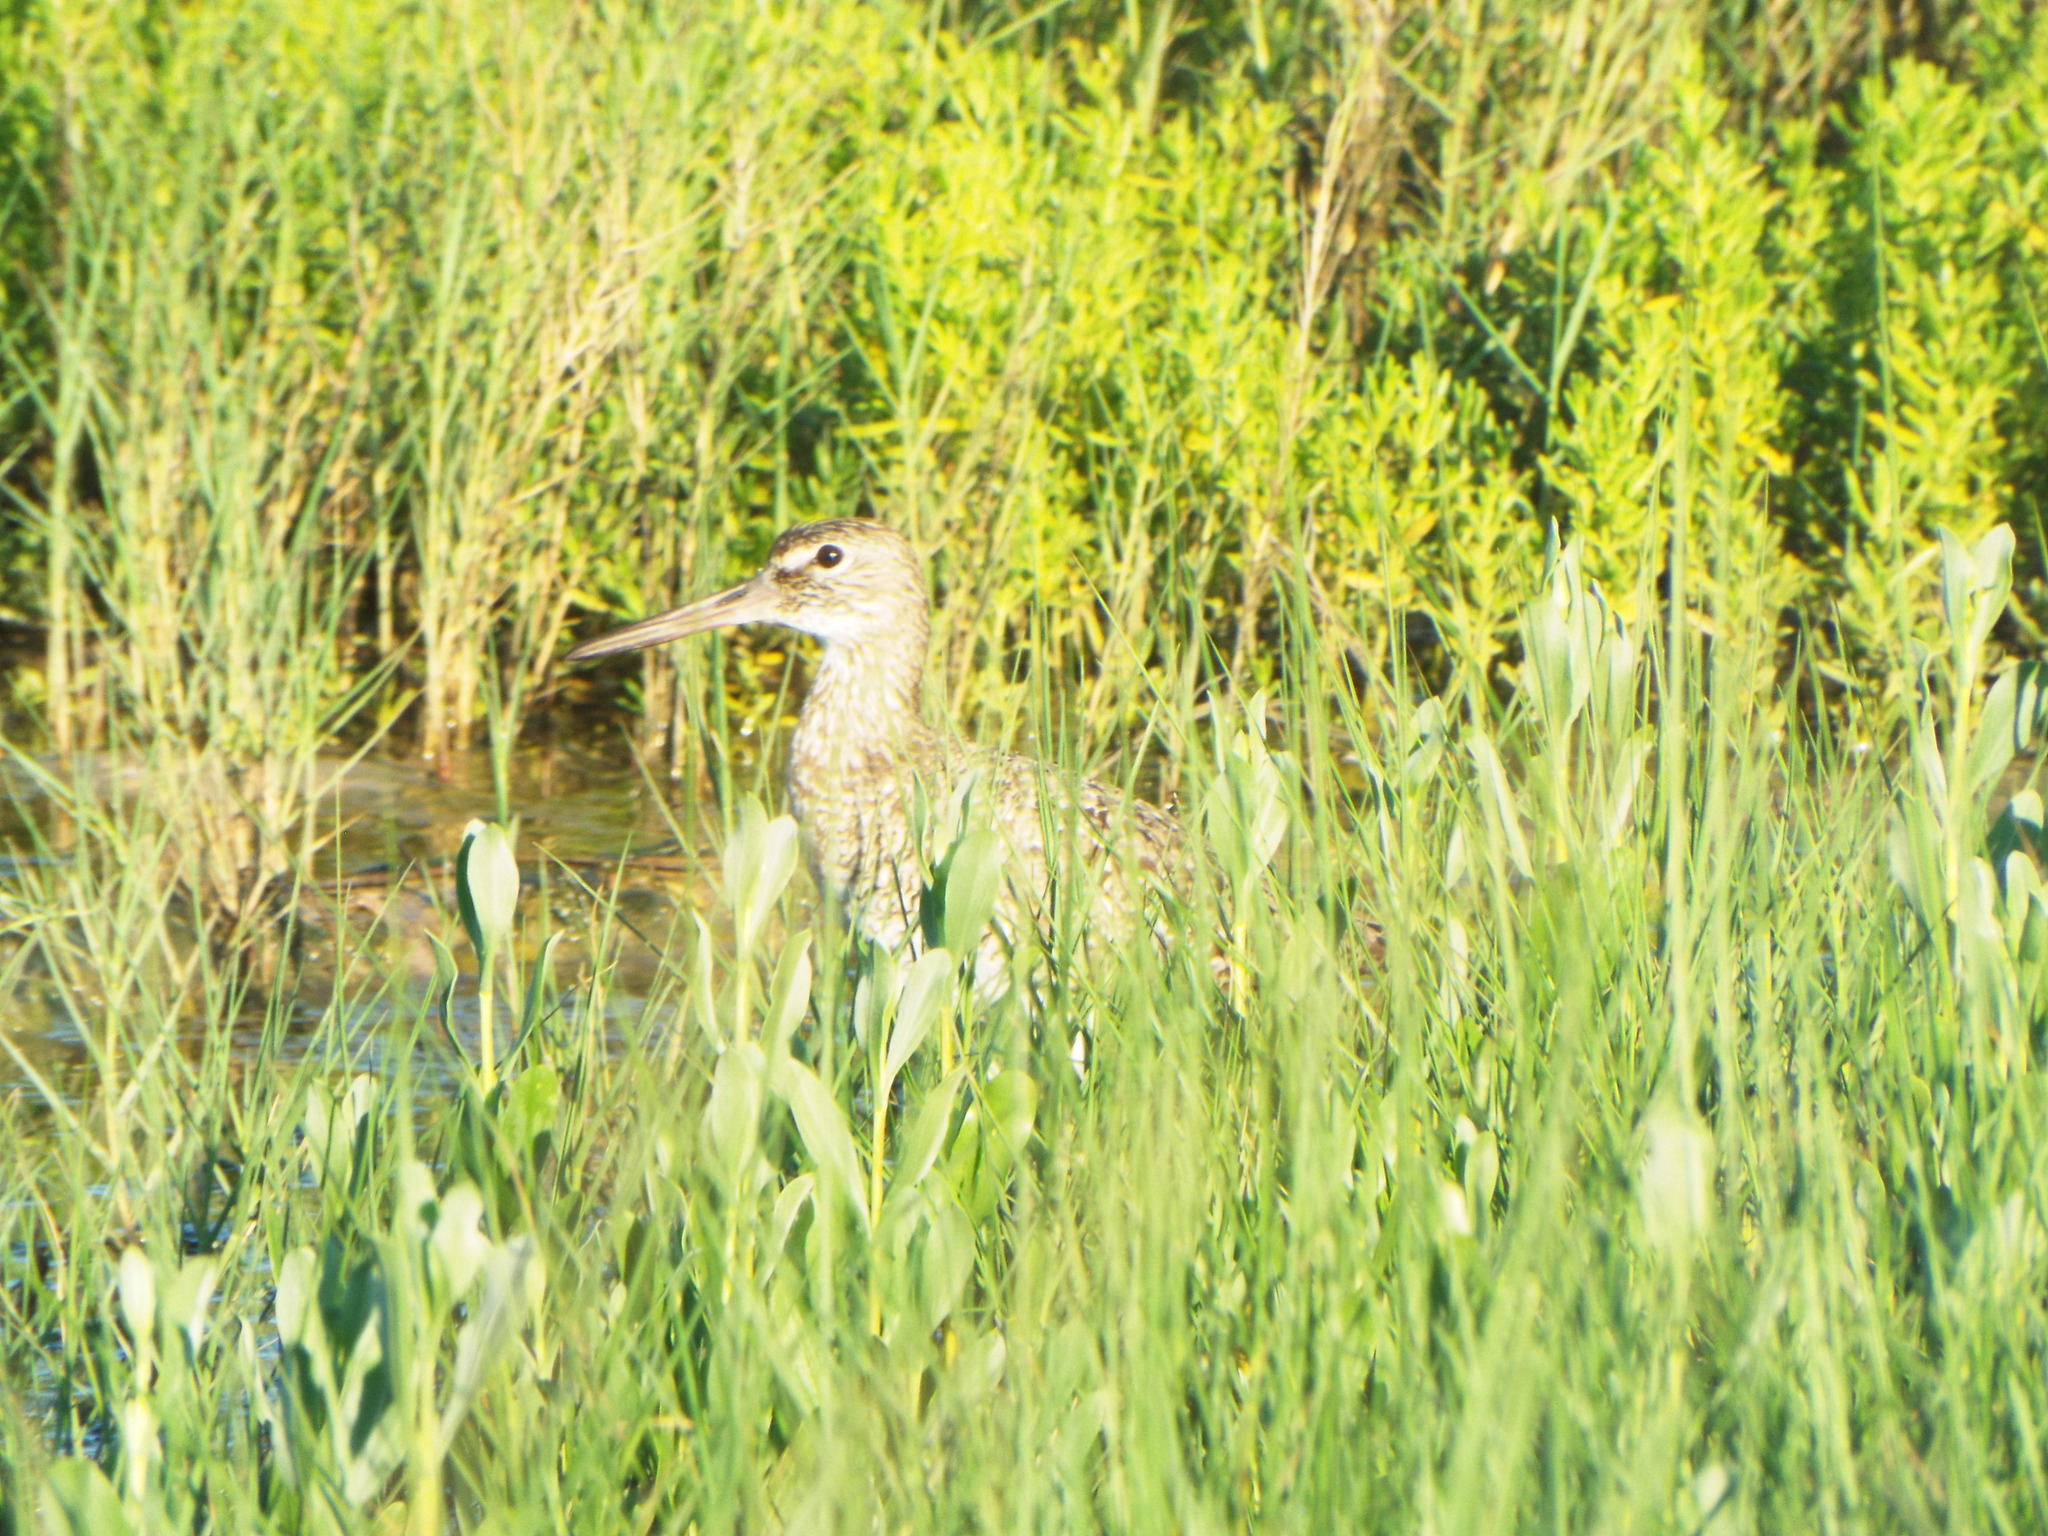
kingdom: Animalia
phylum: Chordata
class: Aves
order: Charadriiformes
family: Scolopacidae
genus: Tringa
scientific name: Tringa semipalmata
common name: Willet
